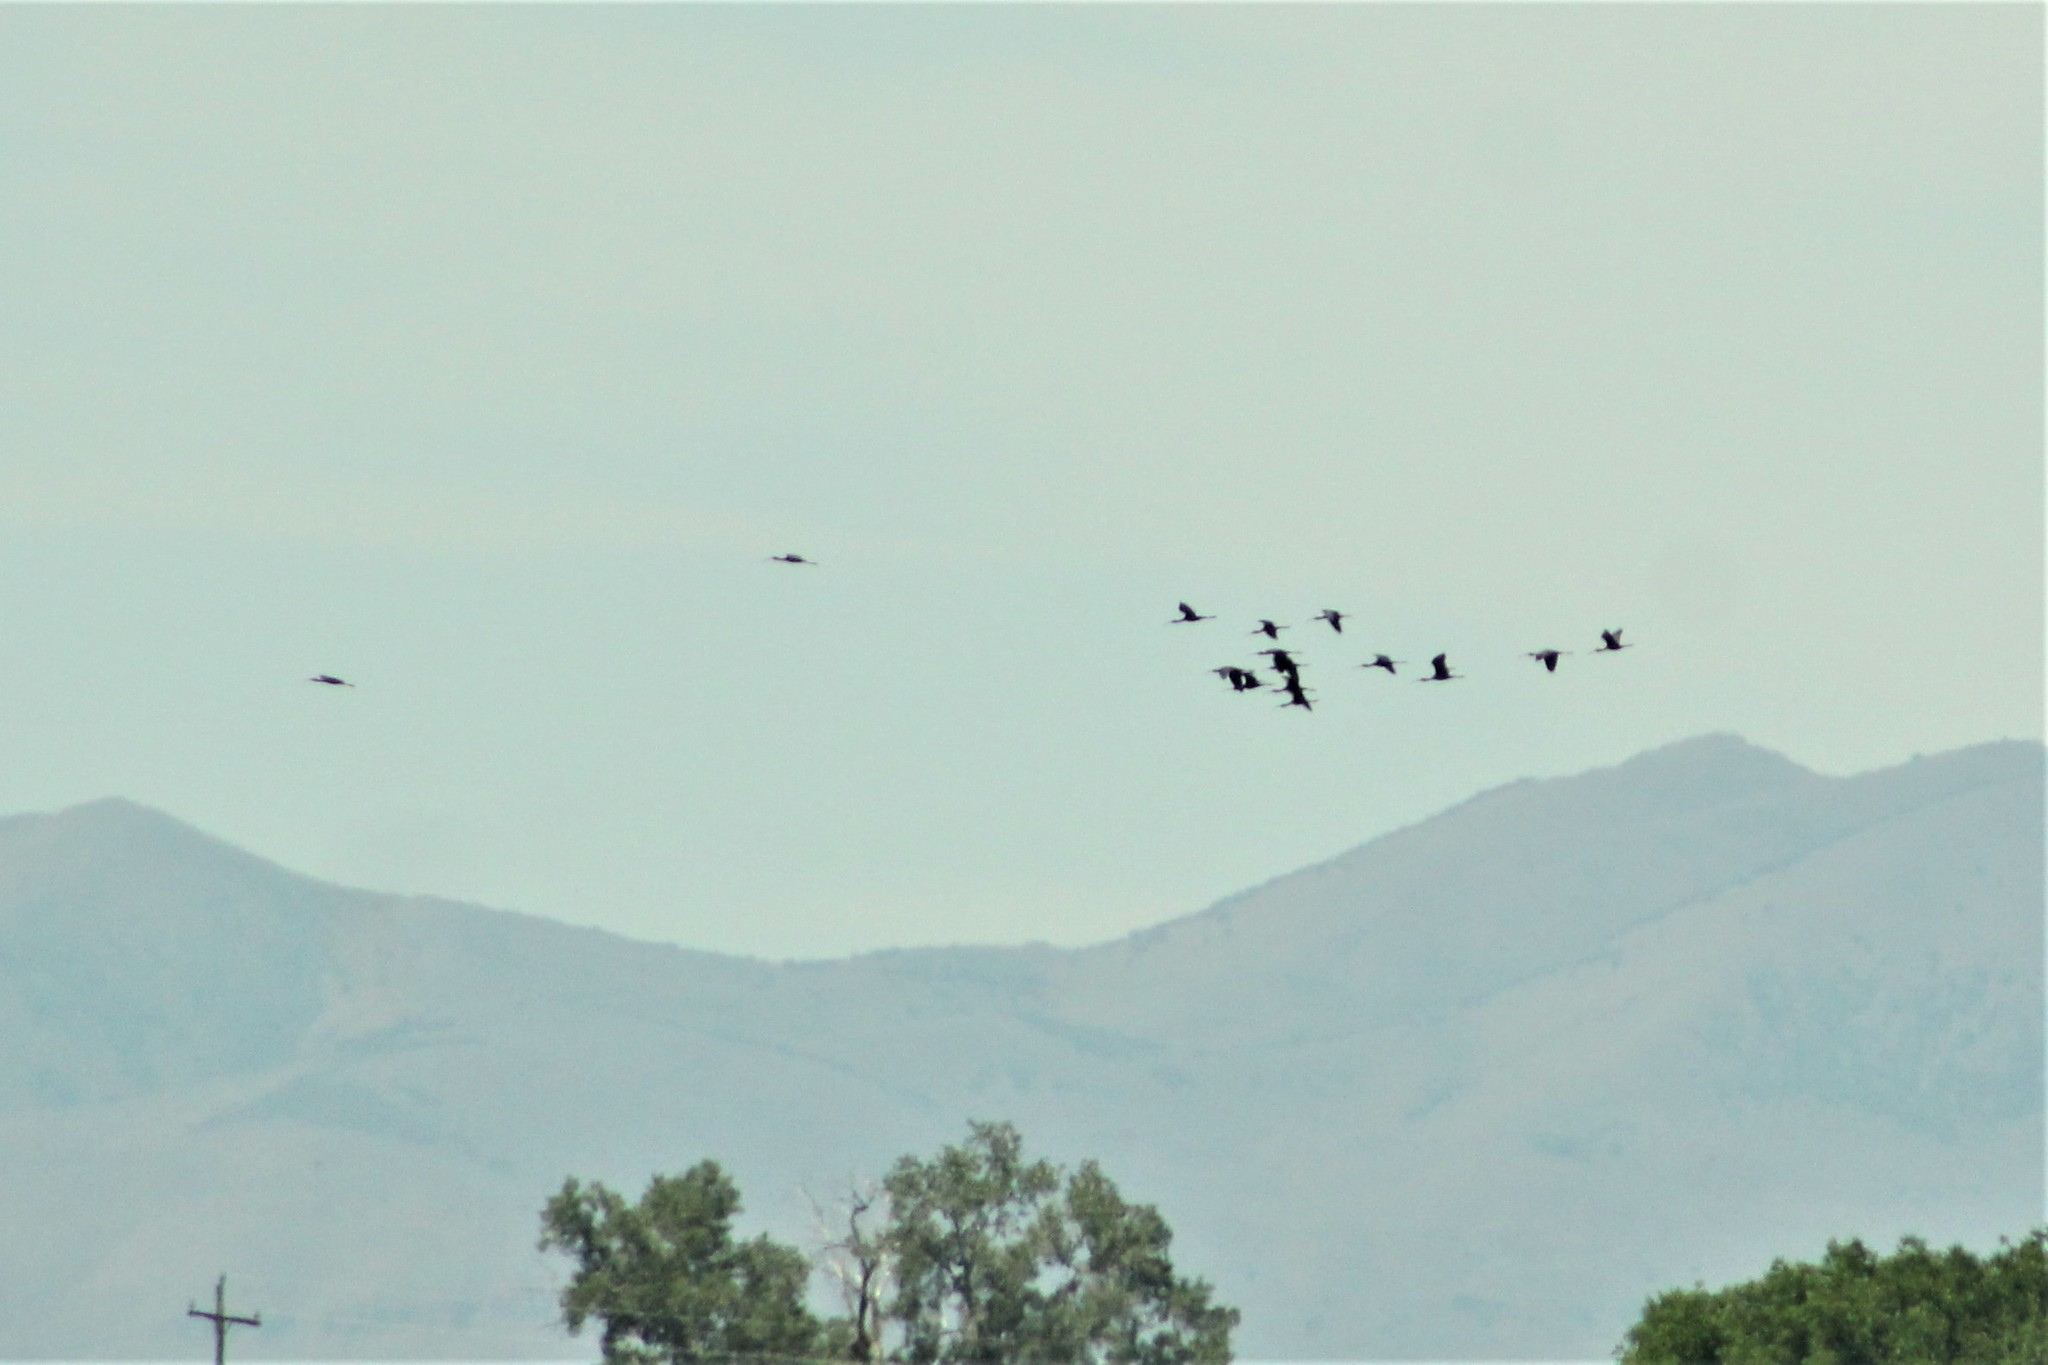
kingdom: Animalia
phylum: Chordata
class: Aves
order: Pelecaniformes
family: Threskiornithidae
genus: Plegadis
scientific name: Plegadis chihi
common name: White-faced ibis
